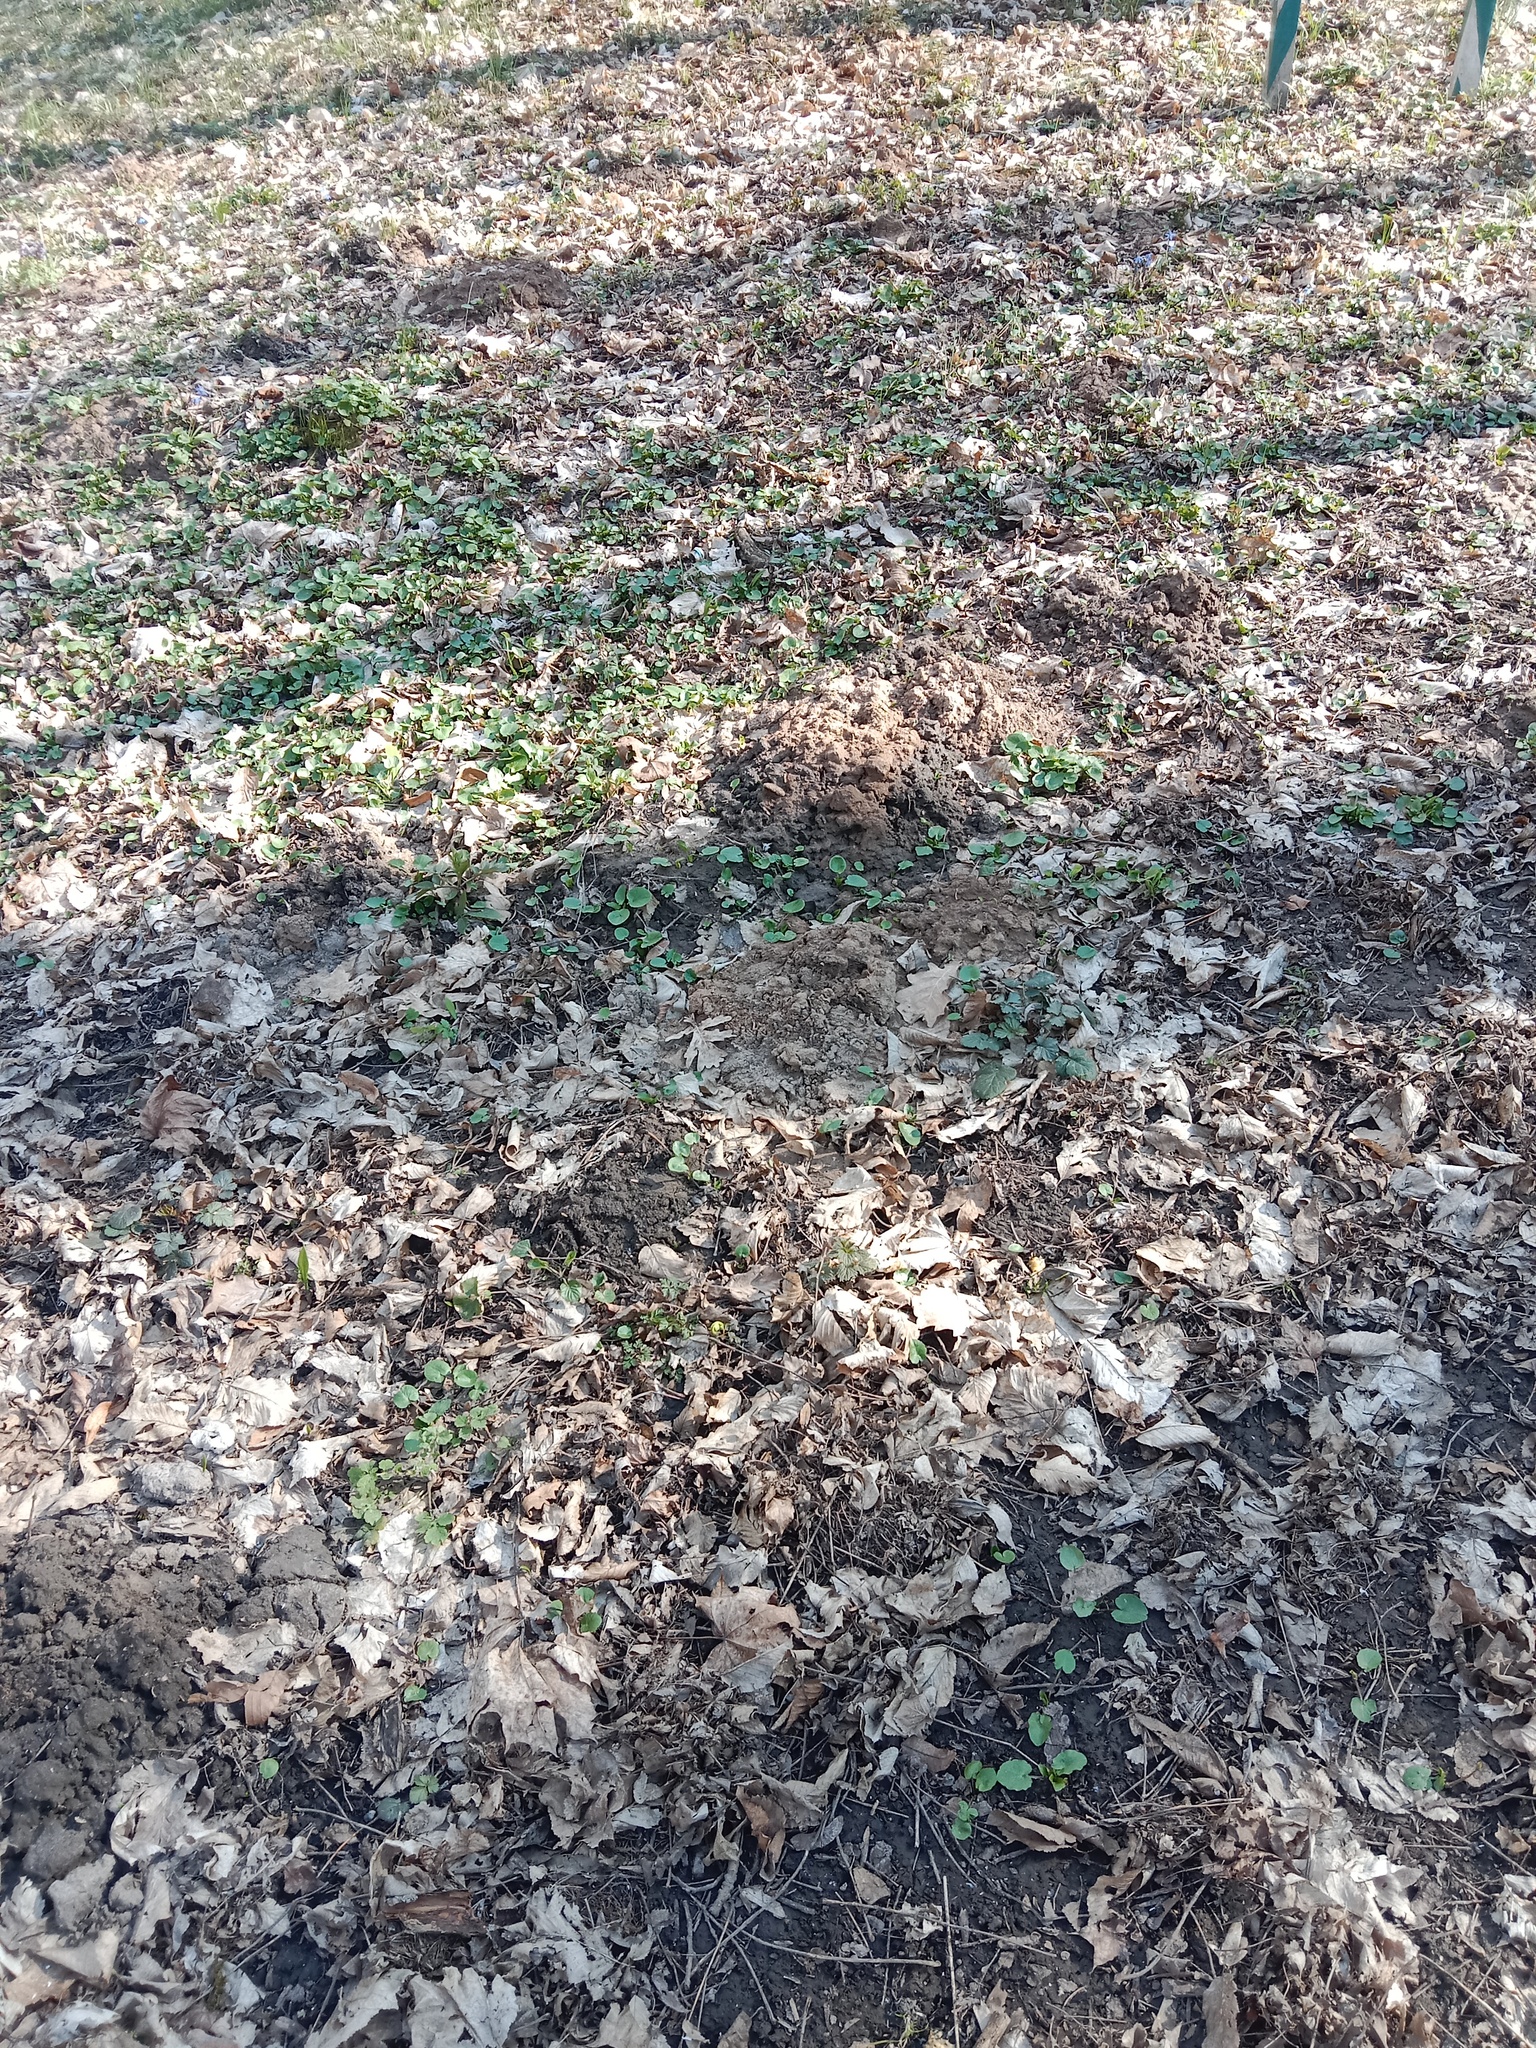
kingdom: Animalia
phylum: Chordata
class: Mammalia
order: Soricomorpha
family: Talpidae
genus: Talpa
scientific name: Talpa europaea
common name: European mole
